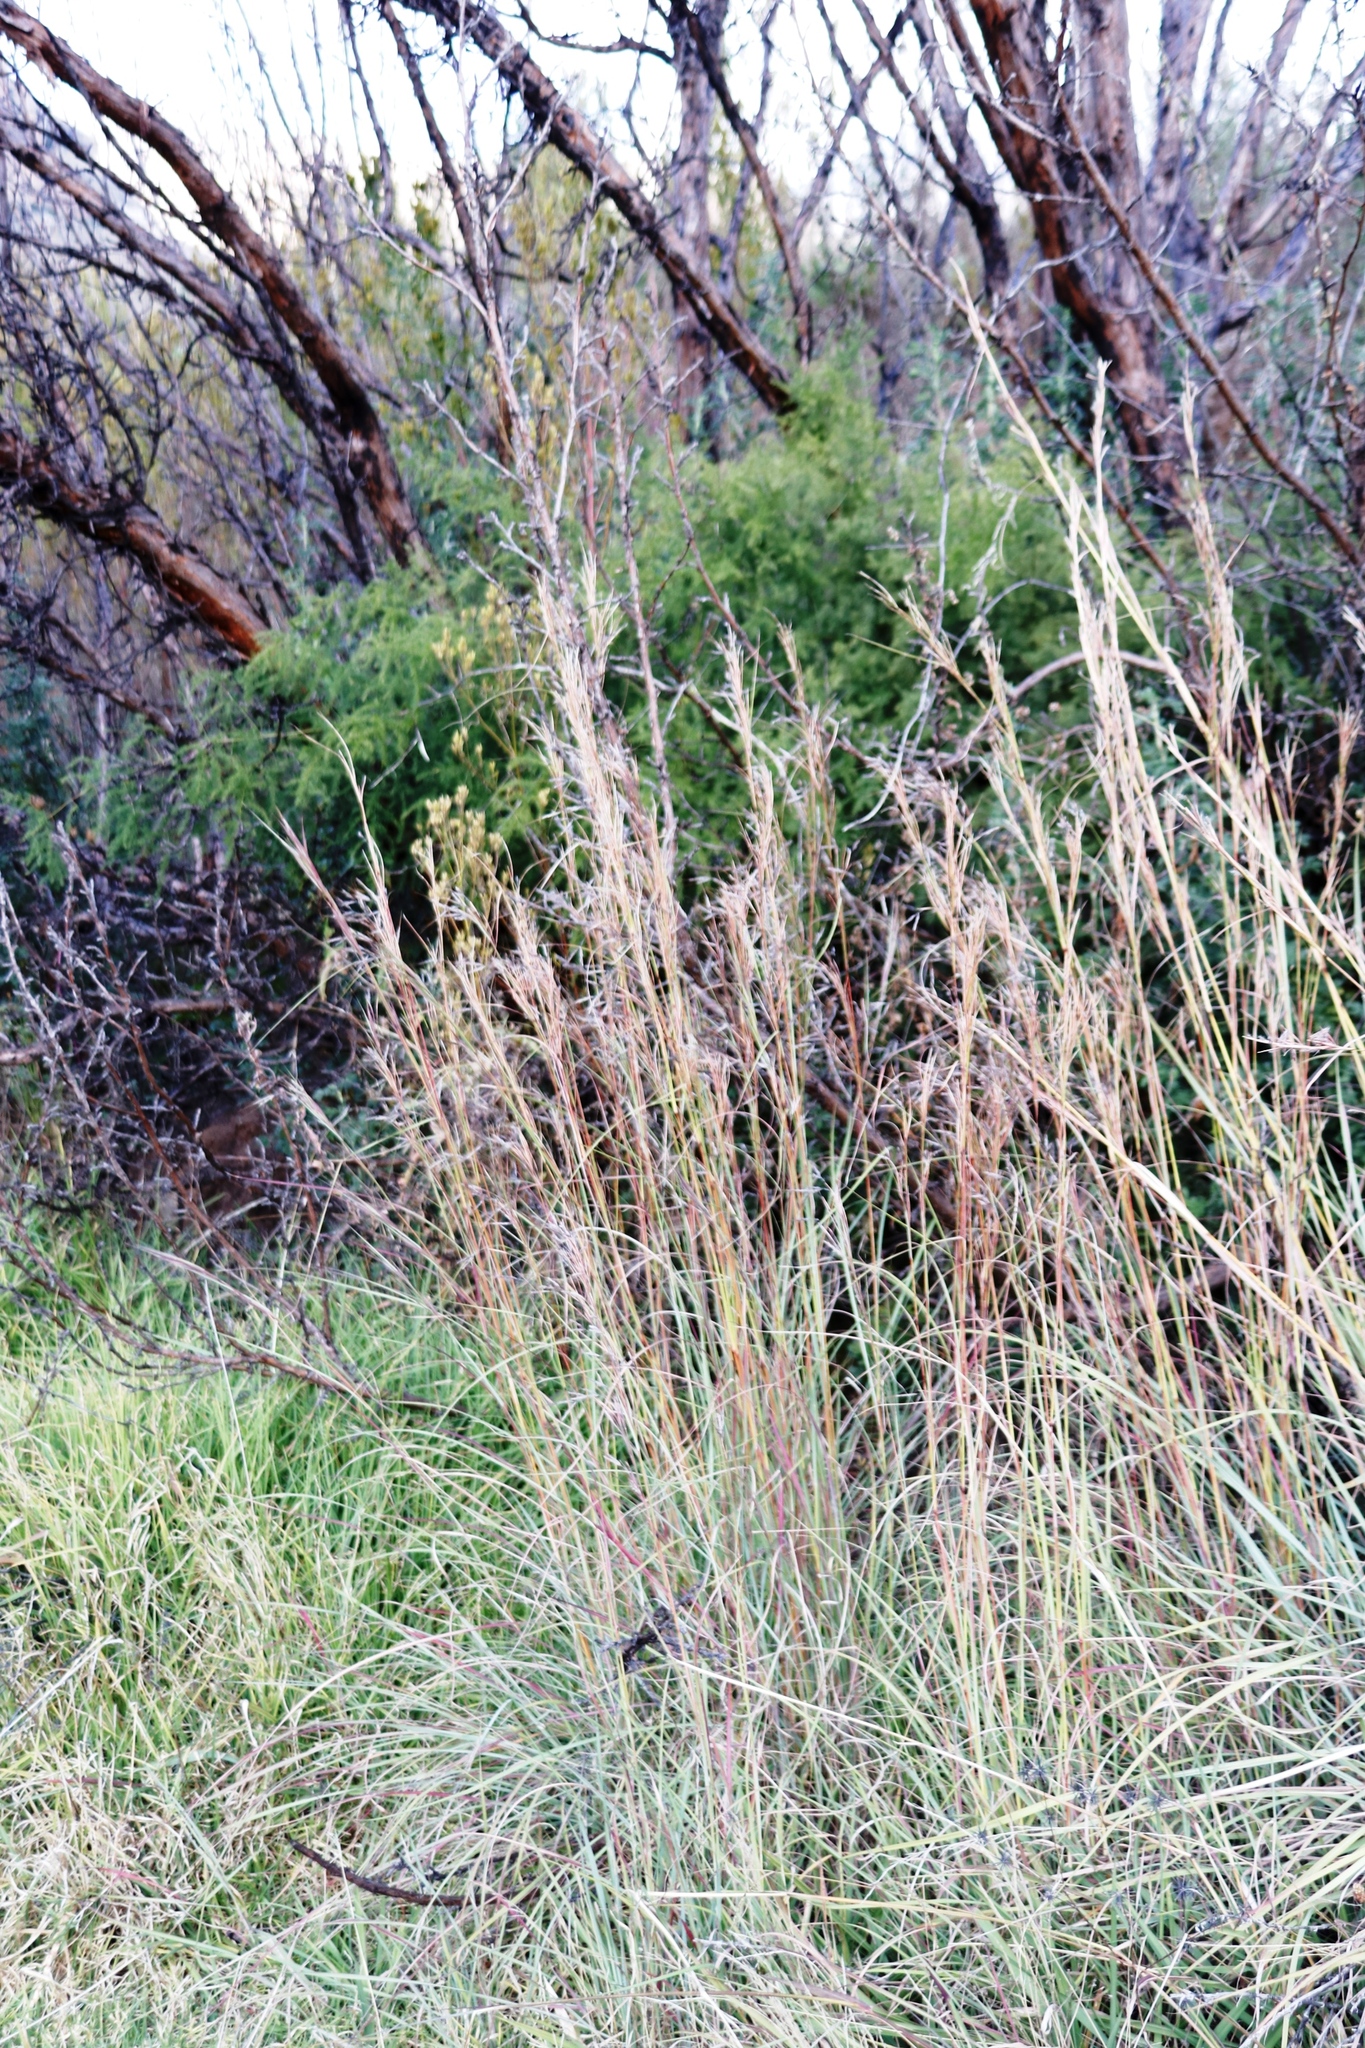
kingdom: Plantae
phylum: Tracheophyta
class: Liliopsida
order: Poales
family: Poaceae
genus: Hyparrhenia
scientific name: Hyparrhenia hirta
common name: Thatching grass
